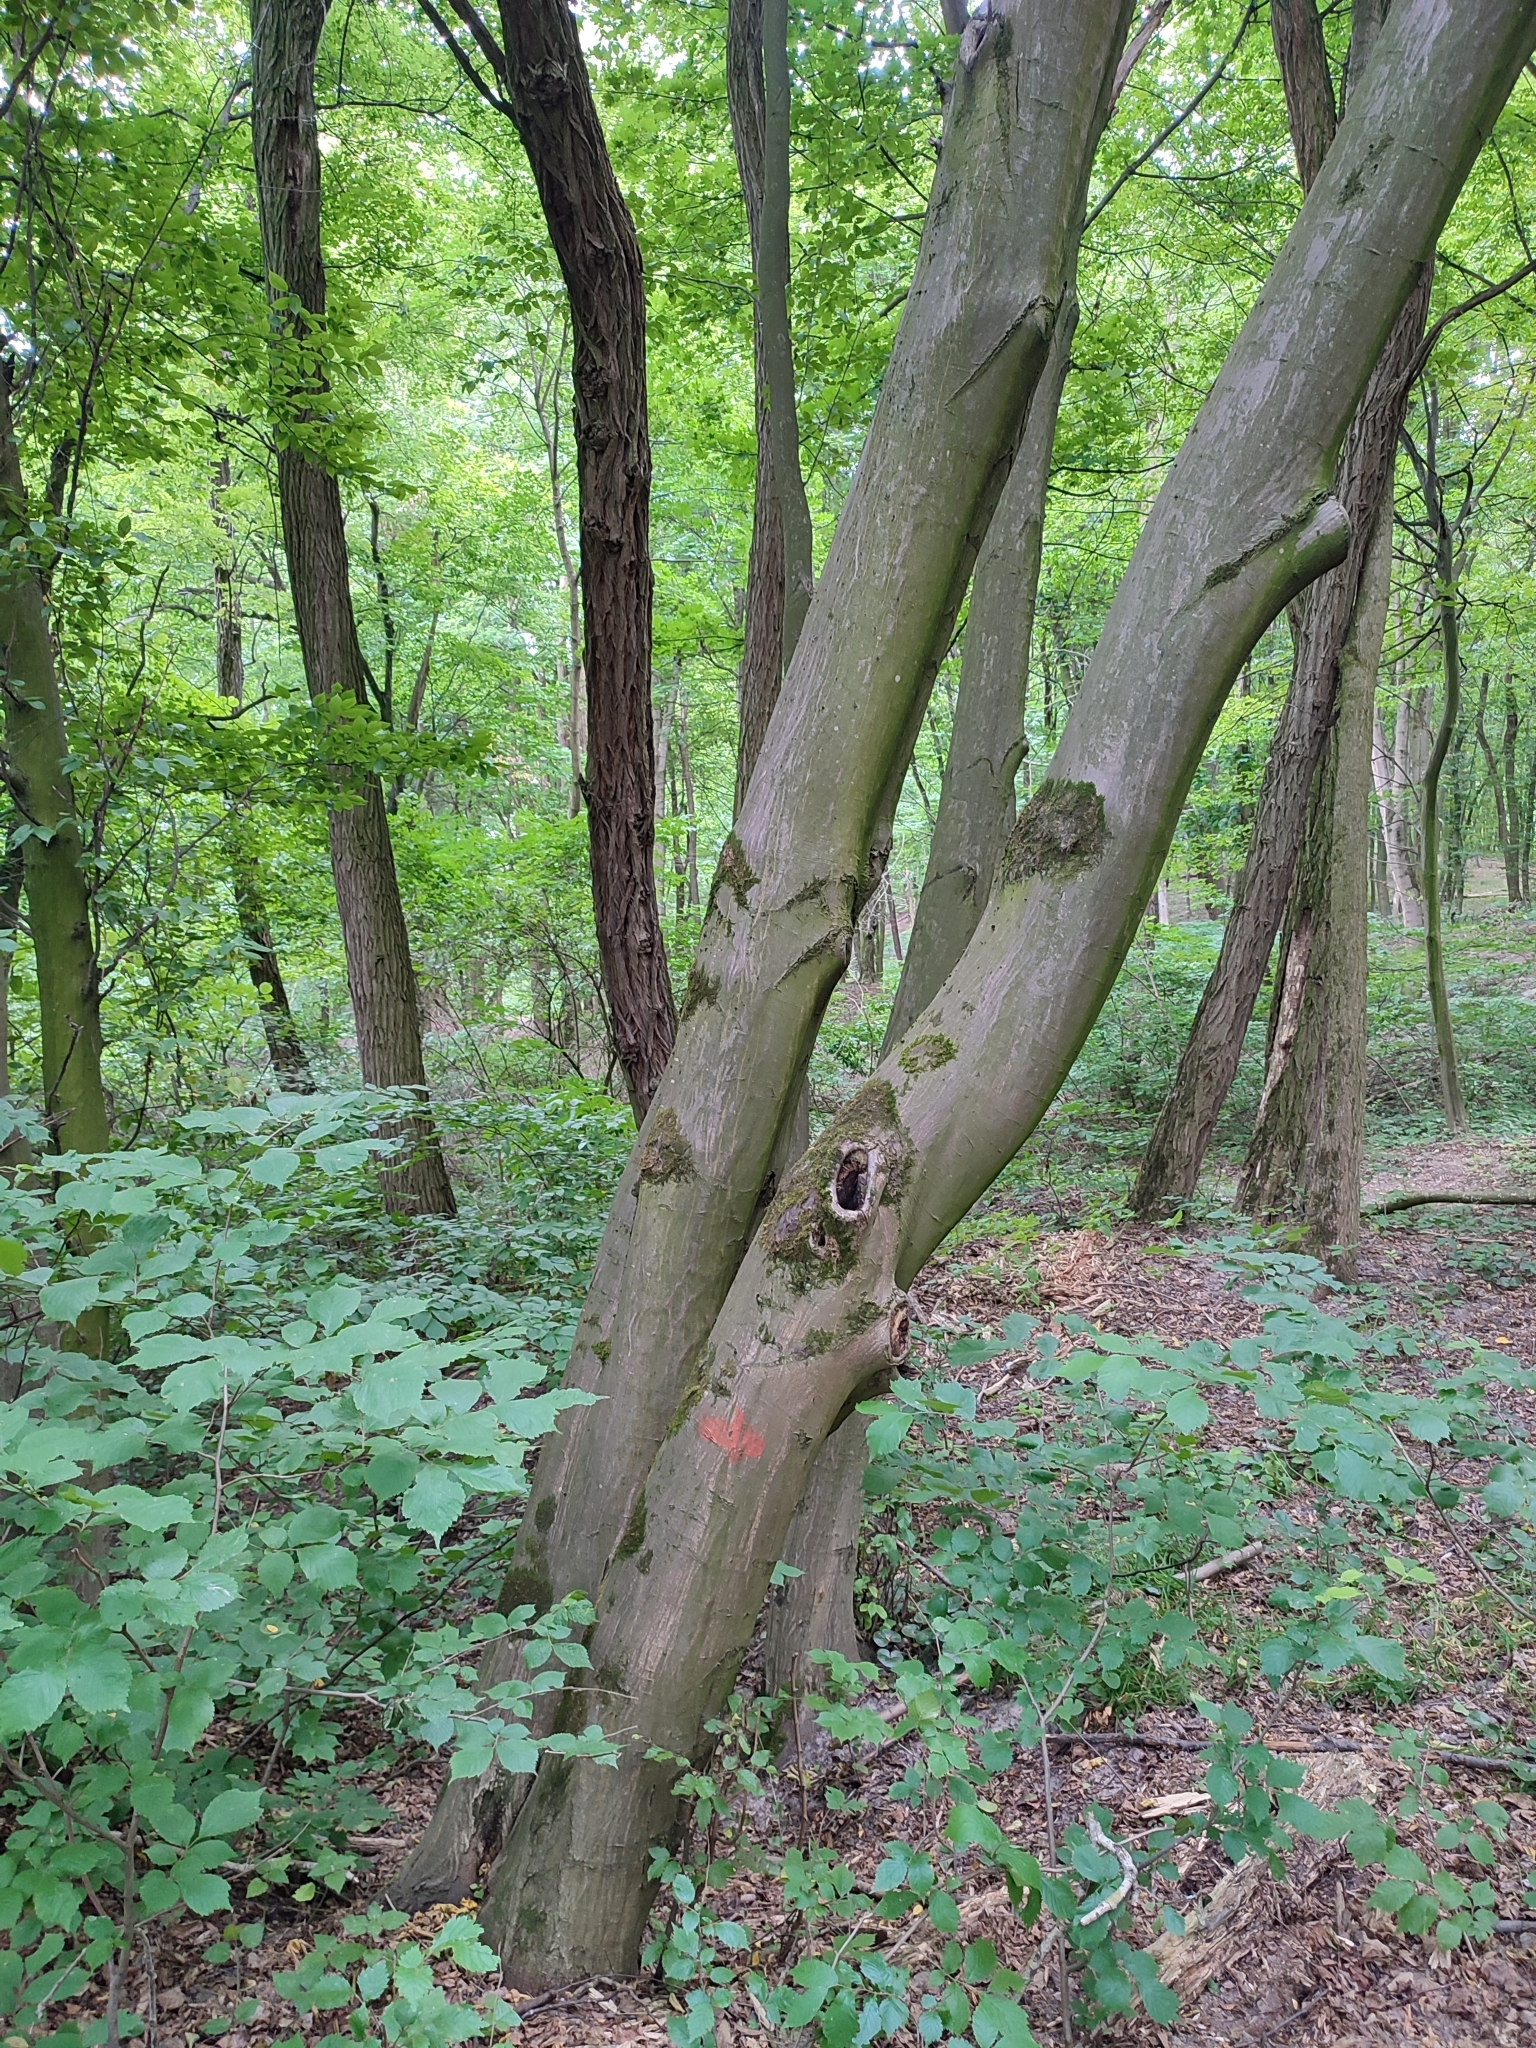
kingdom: Plantae
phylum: Tracheophyta
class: Magnoliopsida
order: Fagales
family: Betulaceae
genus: Carpinus
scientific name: Carpinus betulus
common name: Hornbeam
